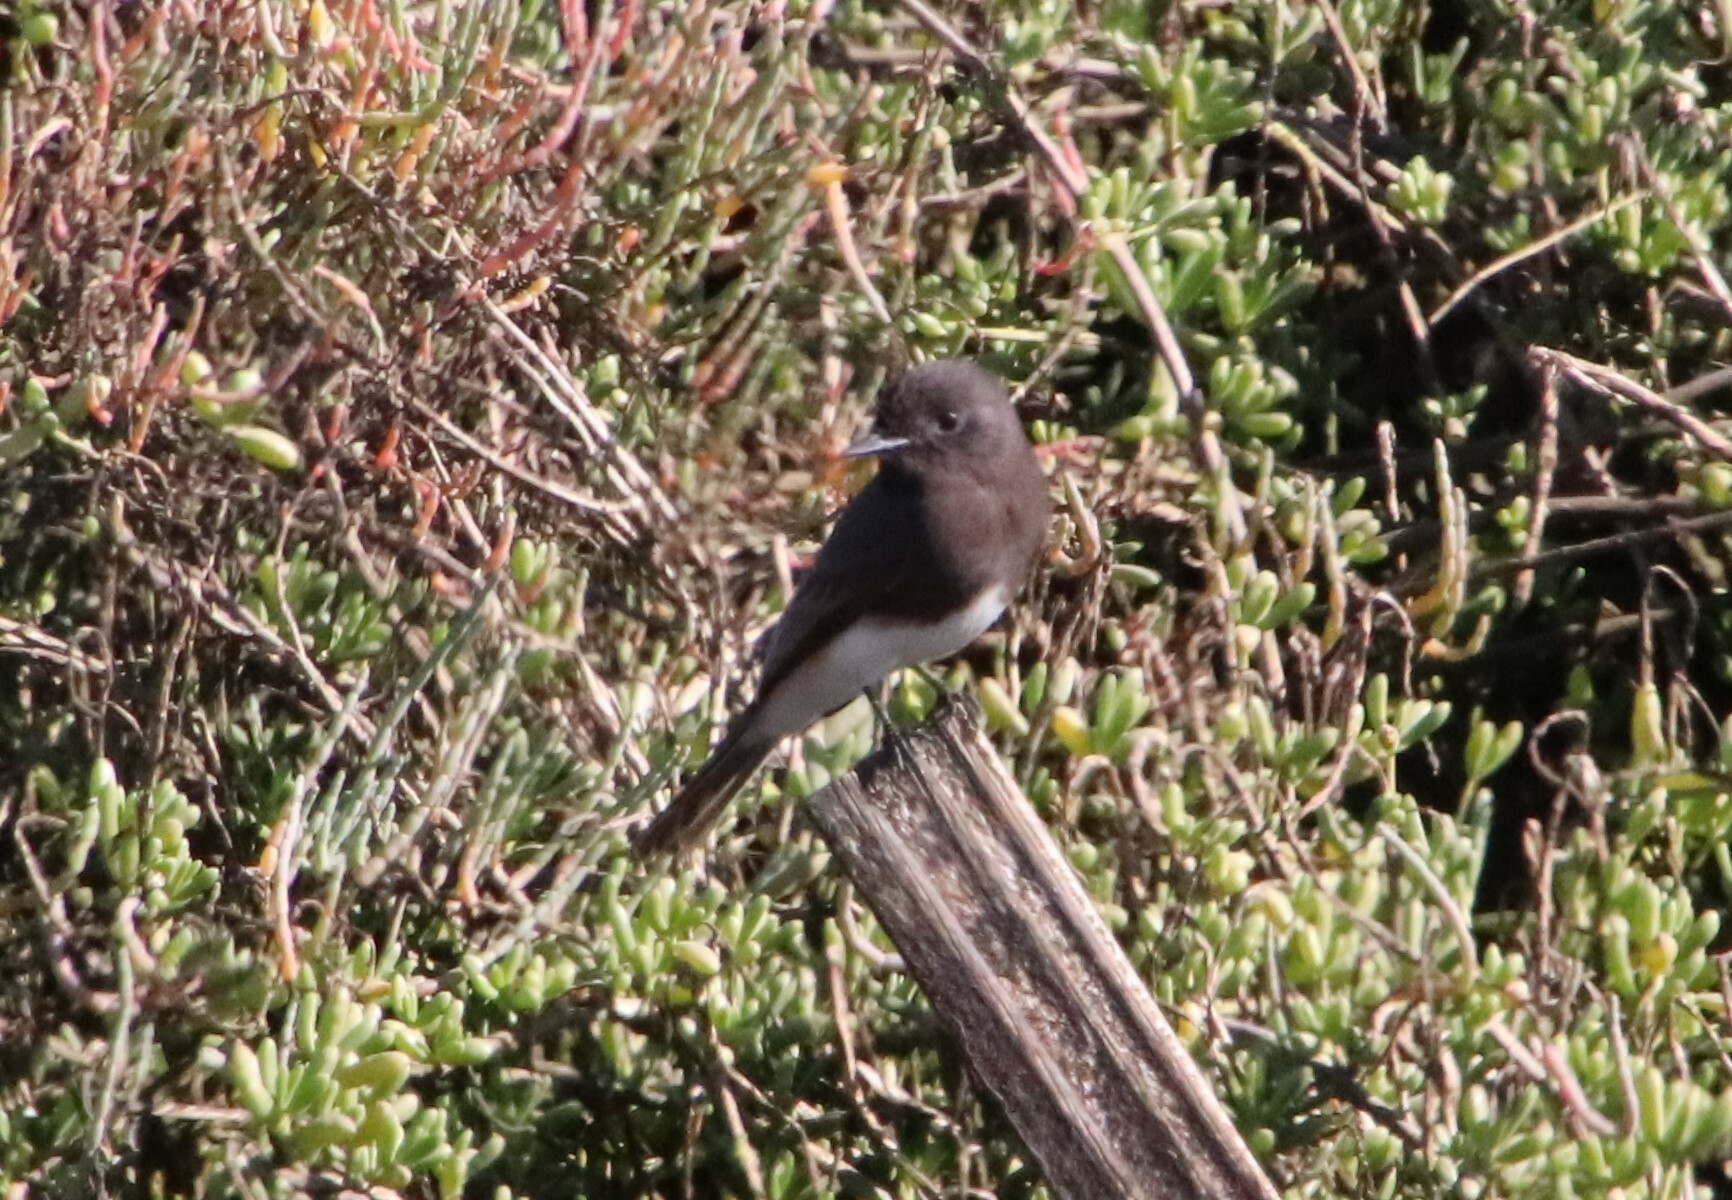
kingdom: Animalia
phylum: Chordata
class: Aves
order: Passeriformes
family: Tyrannidae
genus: Sayornis
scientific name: Sayornis nigricans
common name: Black phoebe
